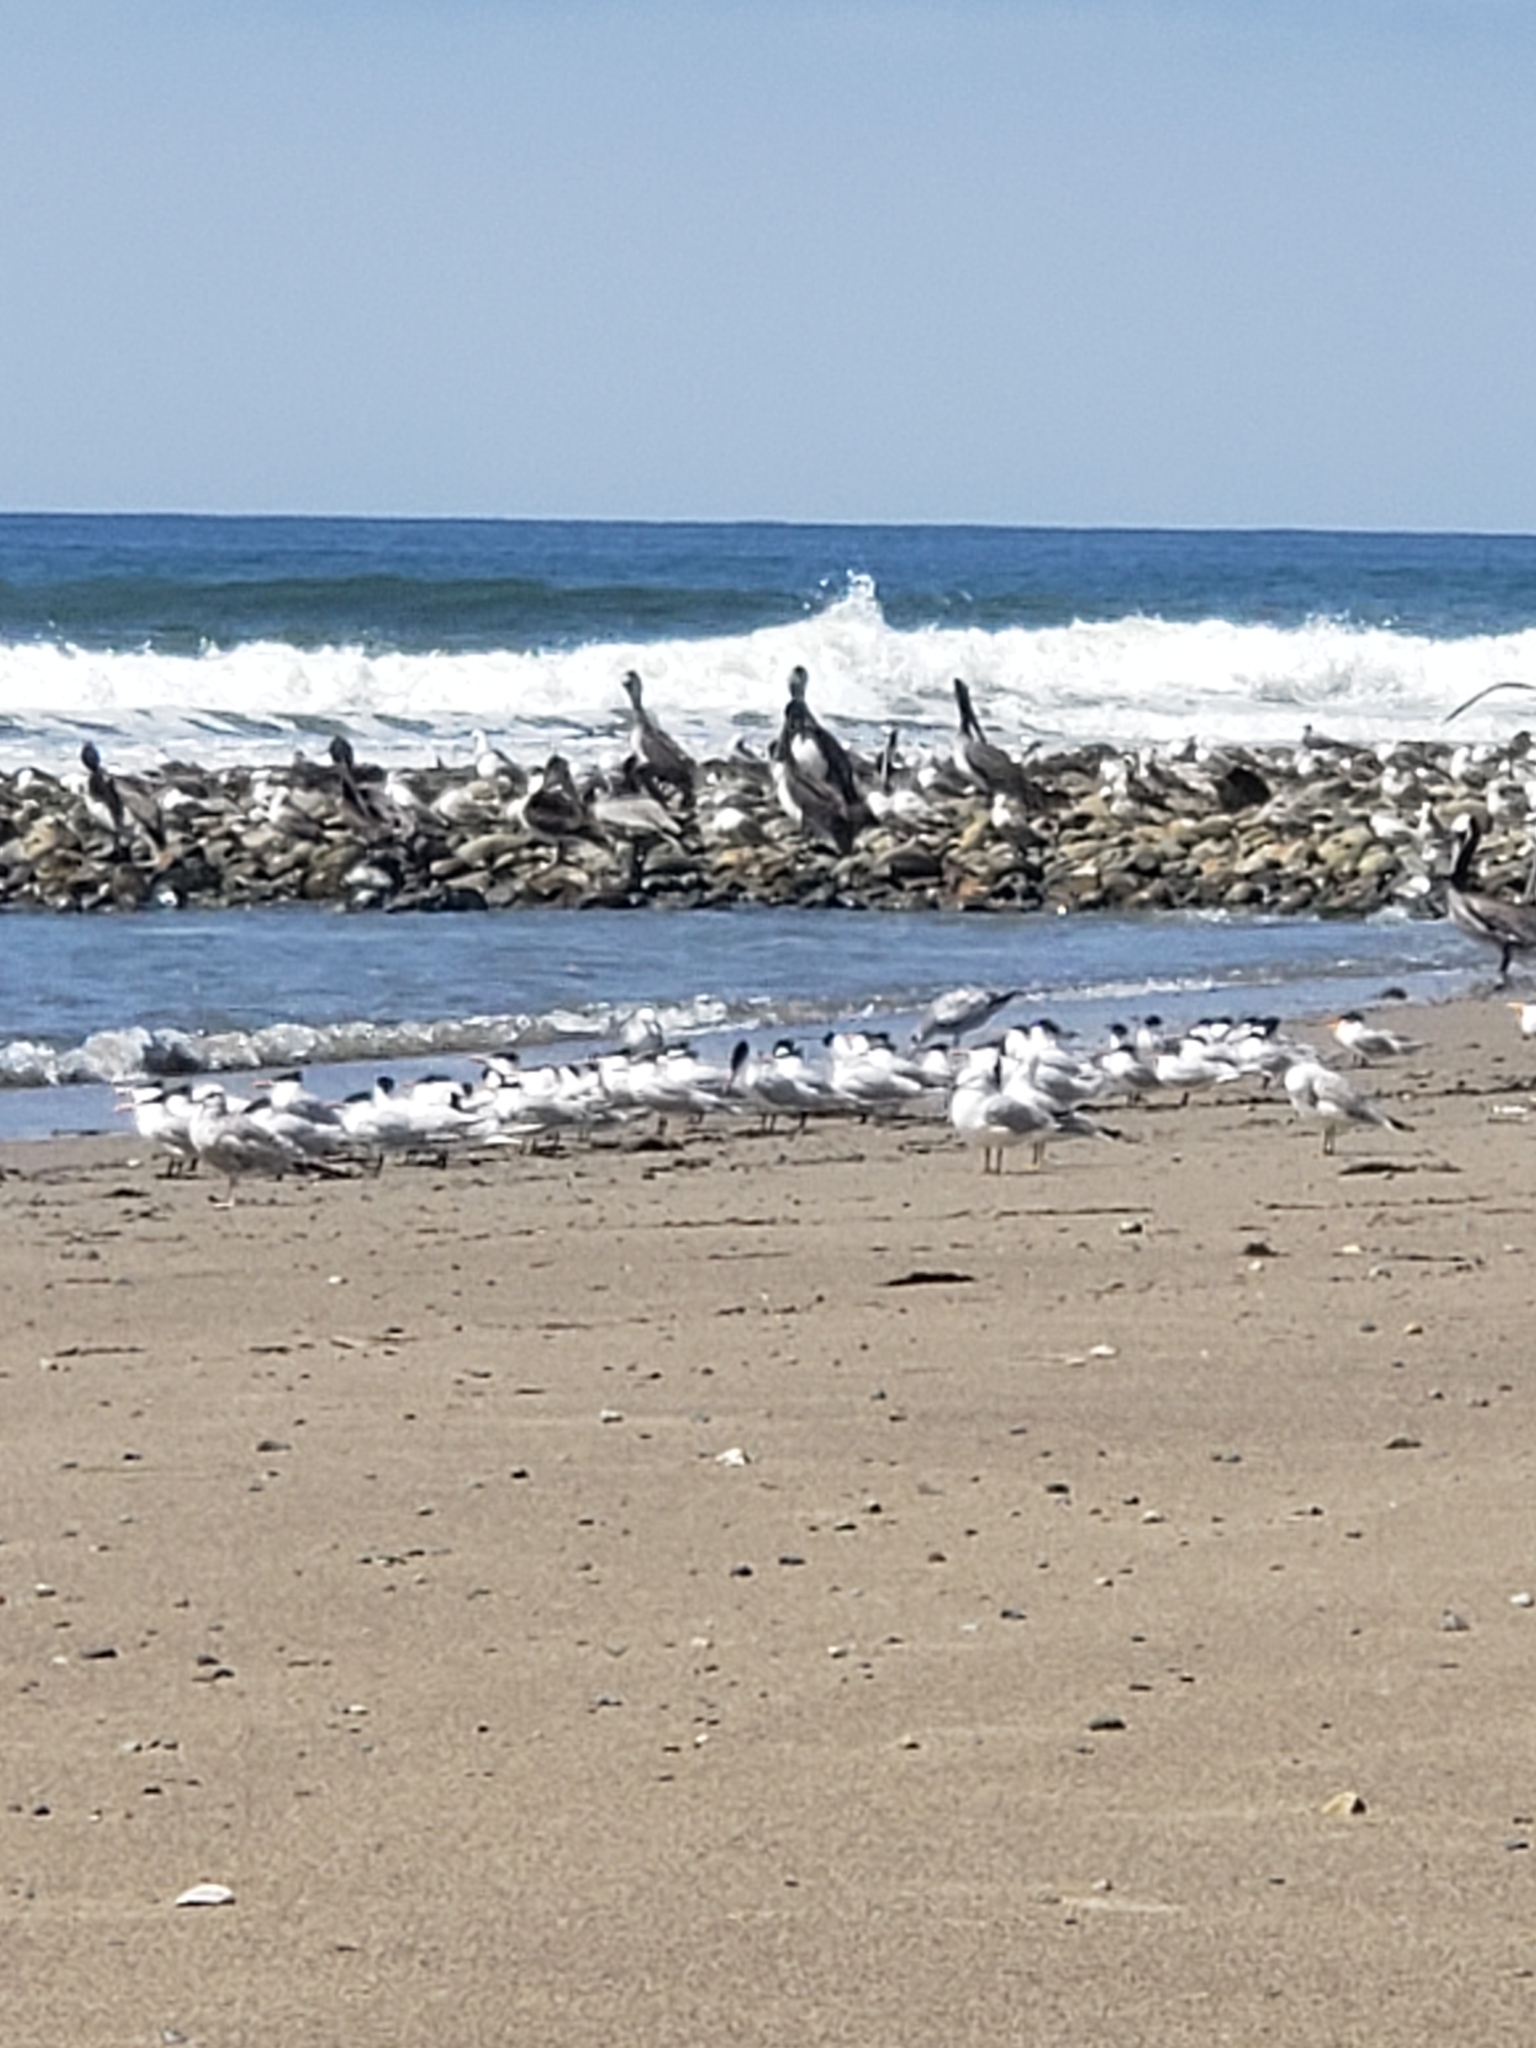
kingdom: Animalia
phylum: Chordata
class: Aves
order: Charadriiformes
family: Laridae
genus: Thalasseus
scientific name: Thalasseus maximus
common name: Royal tern
